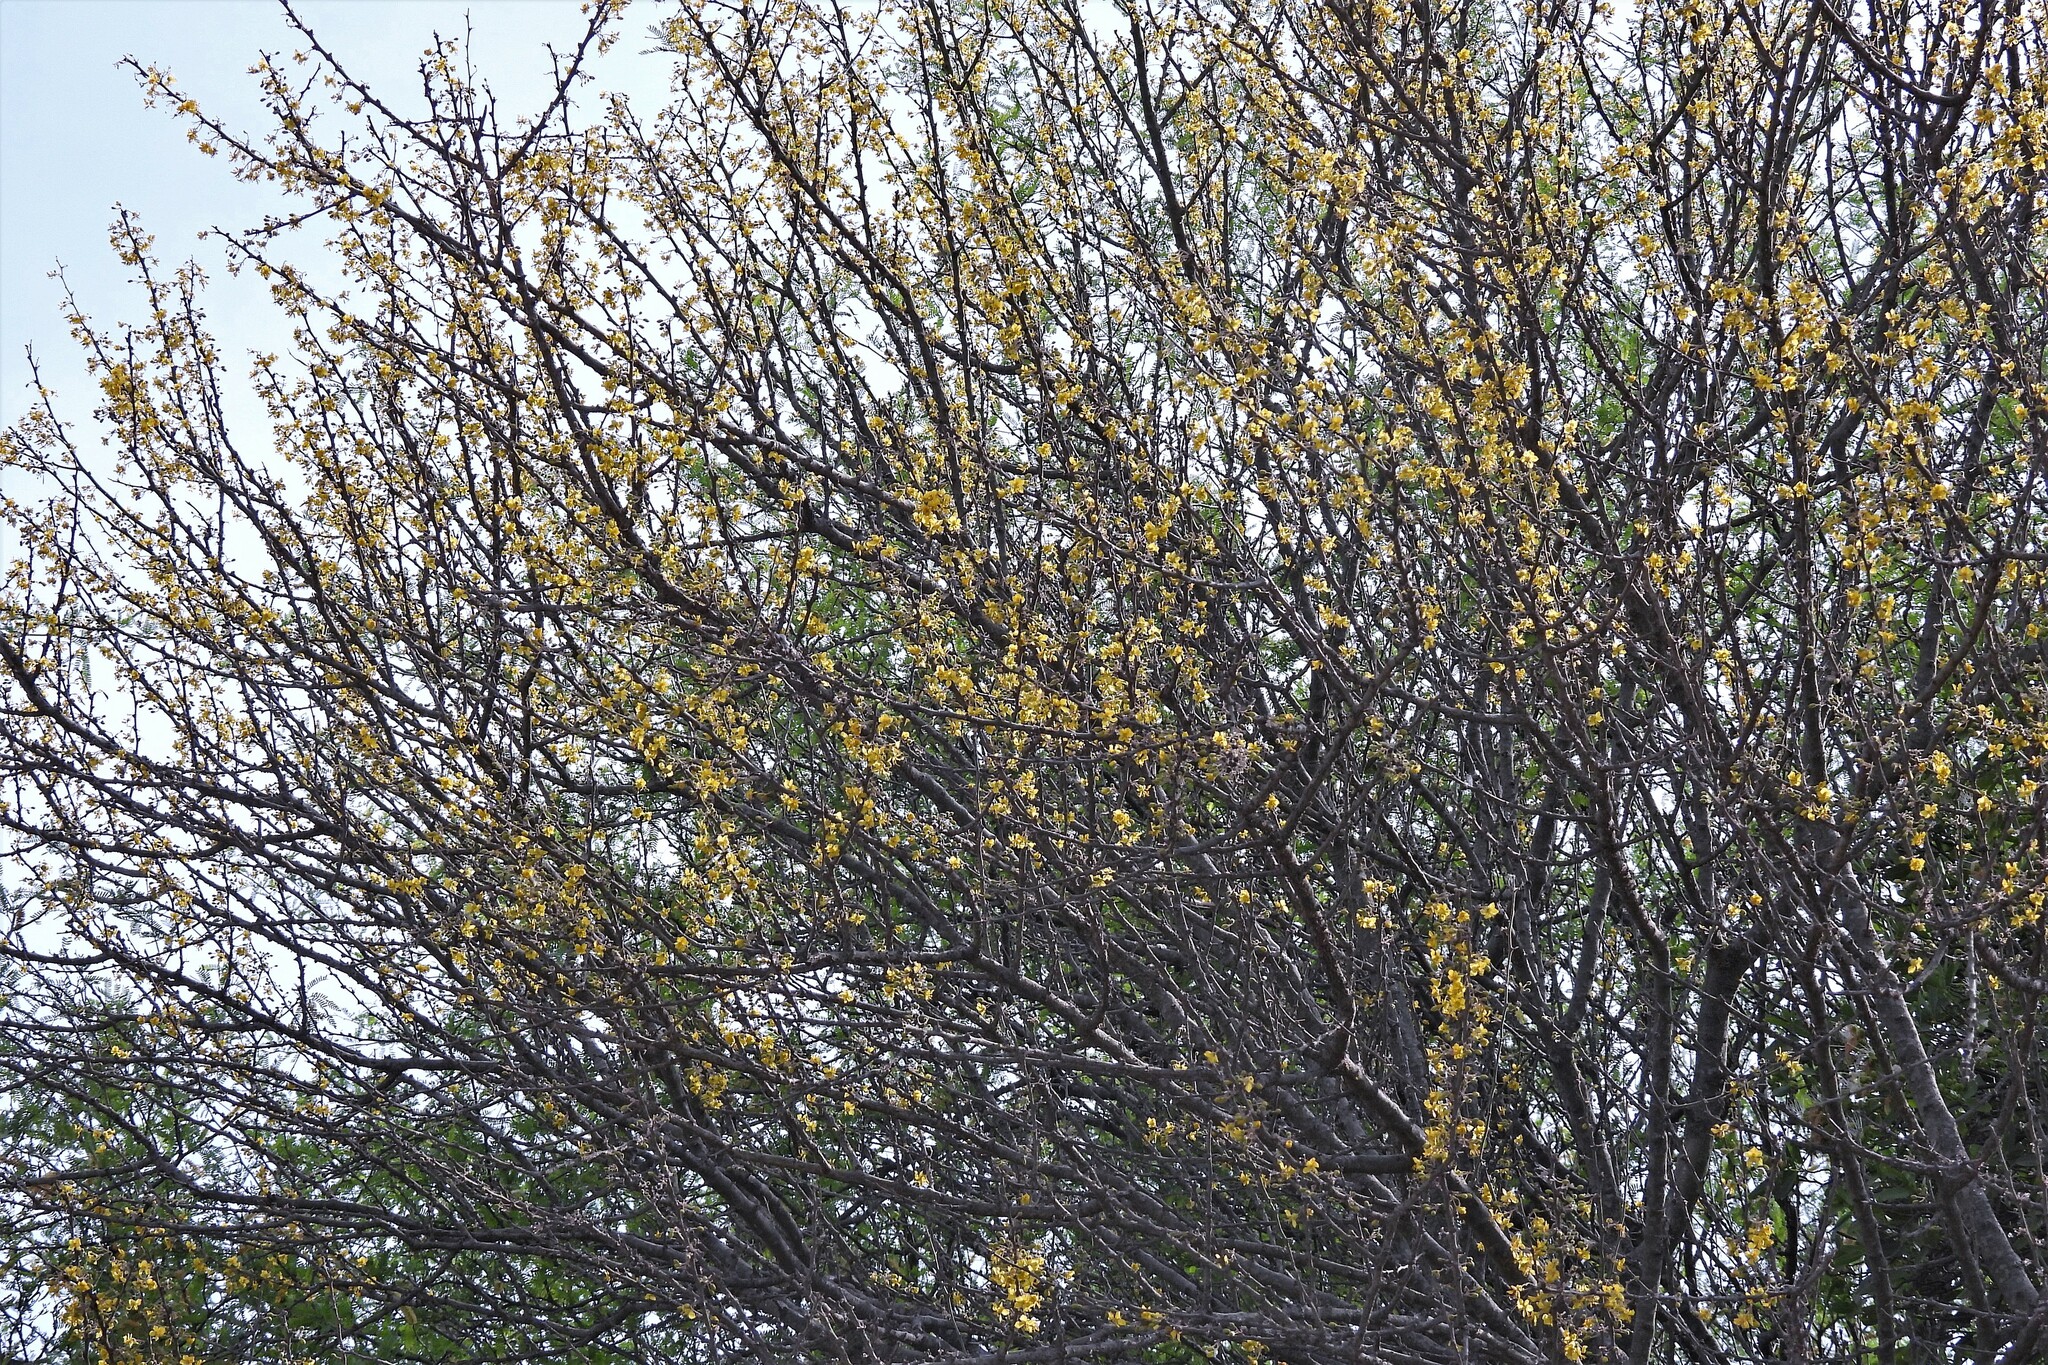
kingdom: Plantae
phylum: Tracheophyta
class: Magnoliopsida
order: Fabales
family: Fabaceae
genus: Parkinsonia
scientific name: Parkinsonia praecox
